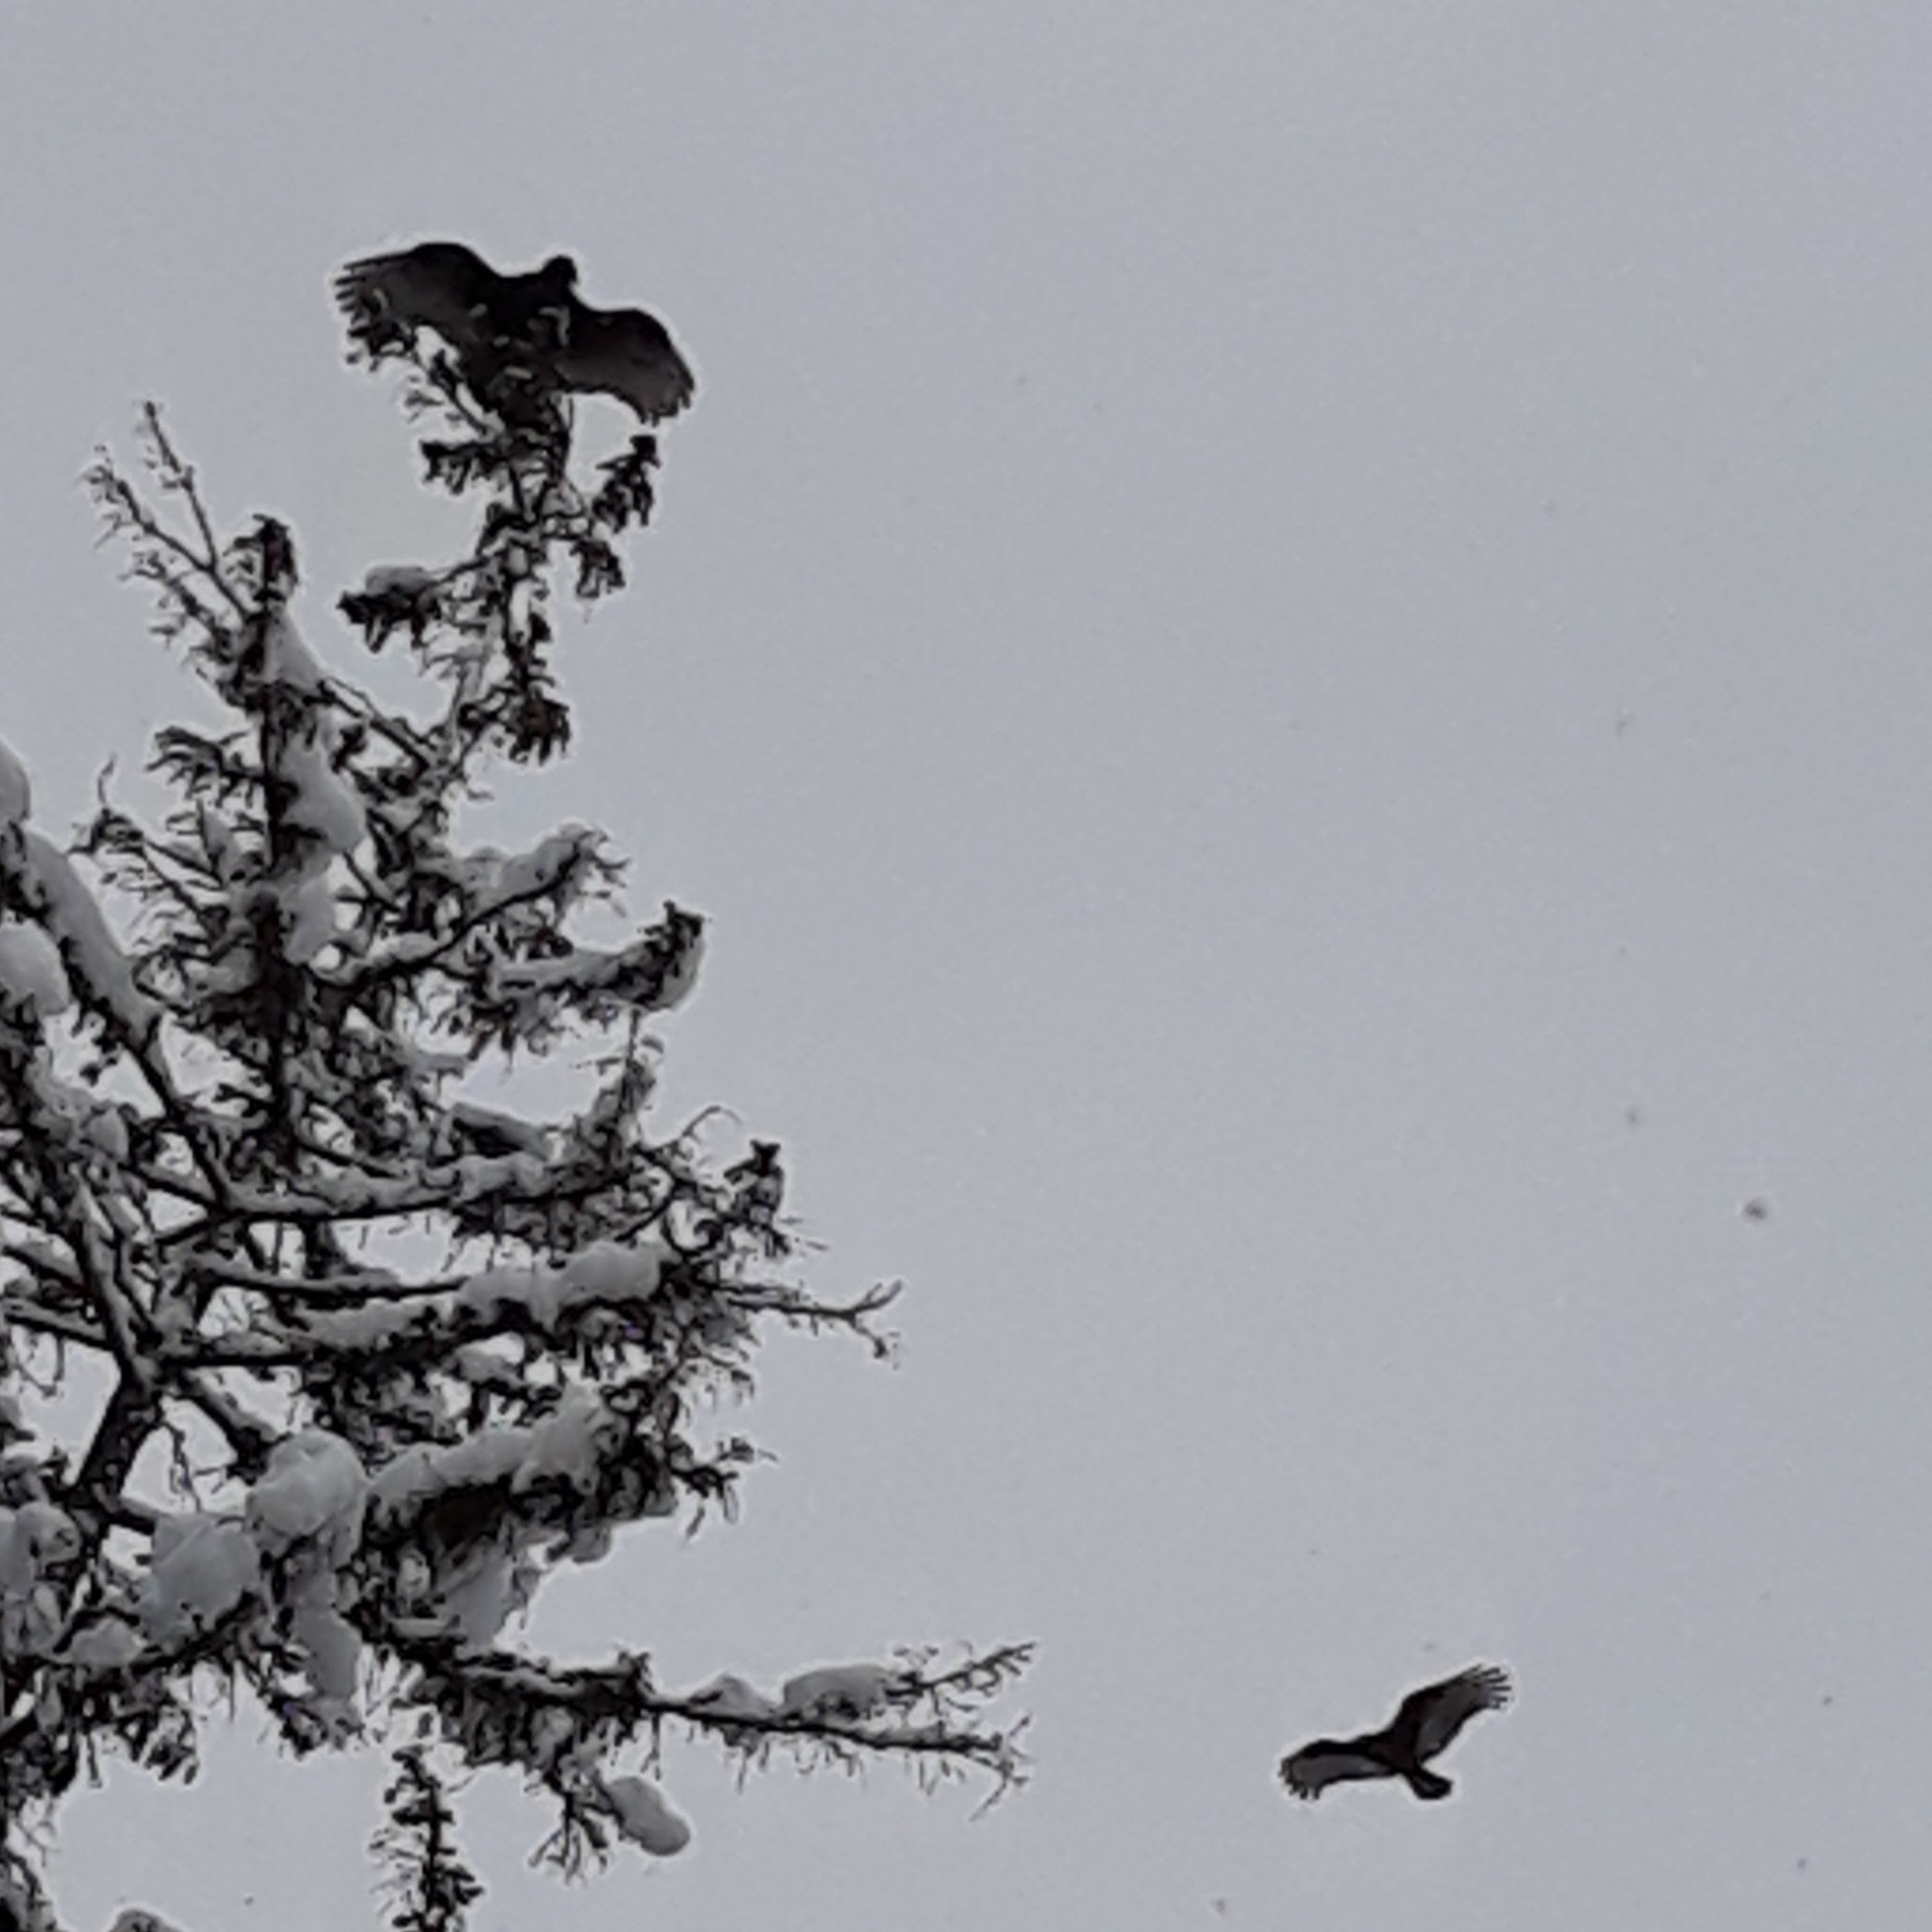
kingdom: Animalia
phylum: Chordata
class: Aves
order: Accipitriformes
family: Cathartidae
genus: Cathartes
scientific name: Cathartes aura
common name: Turkey vulture
